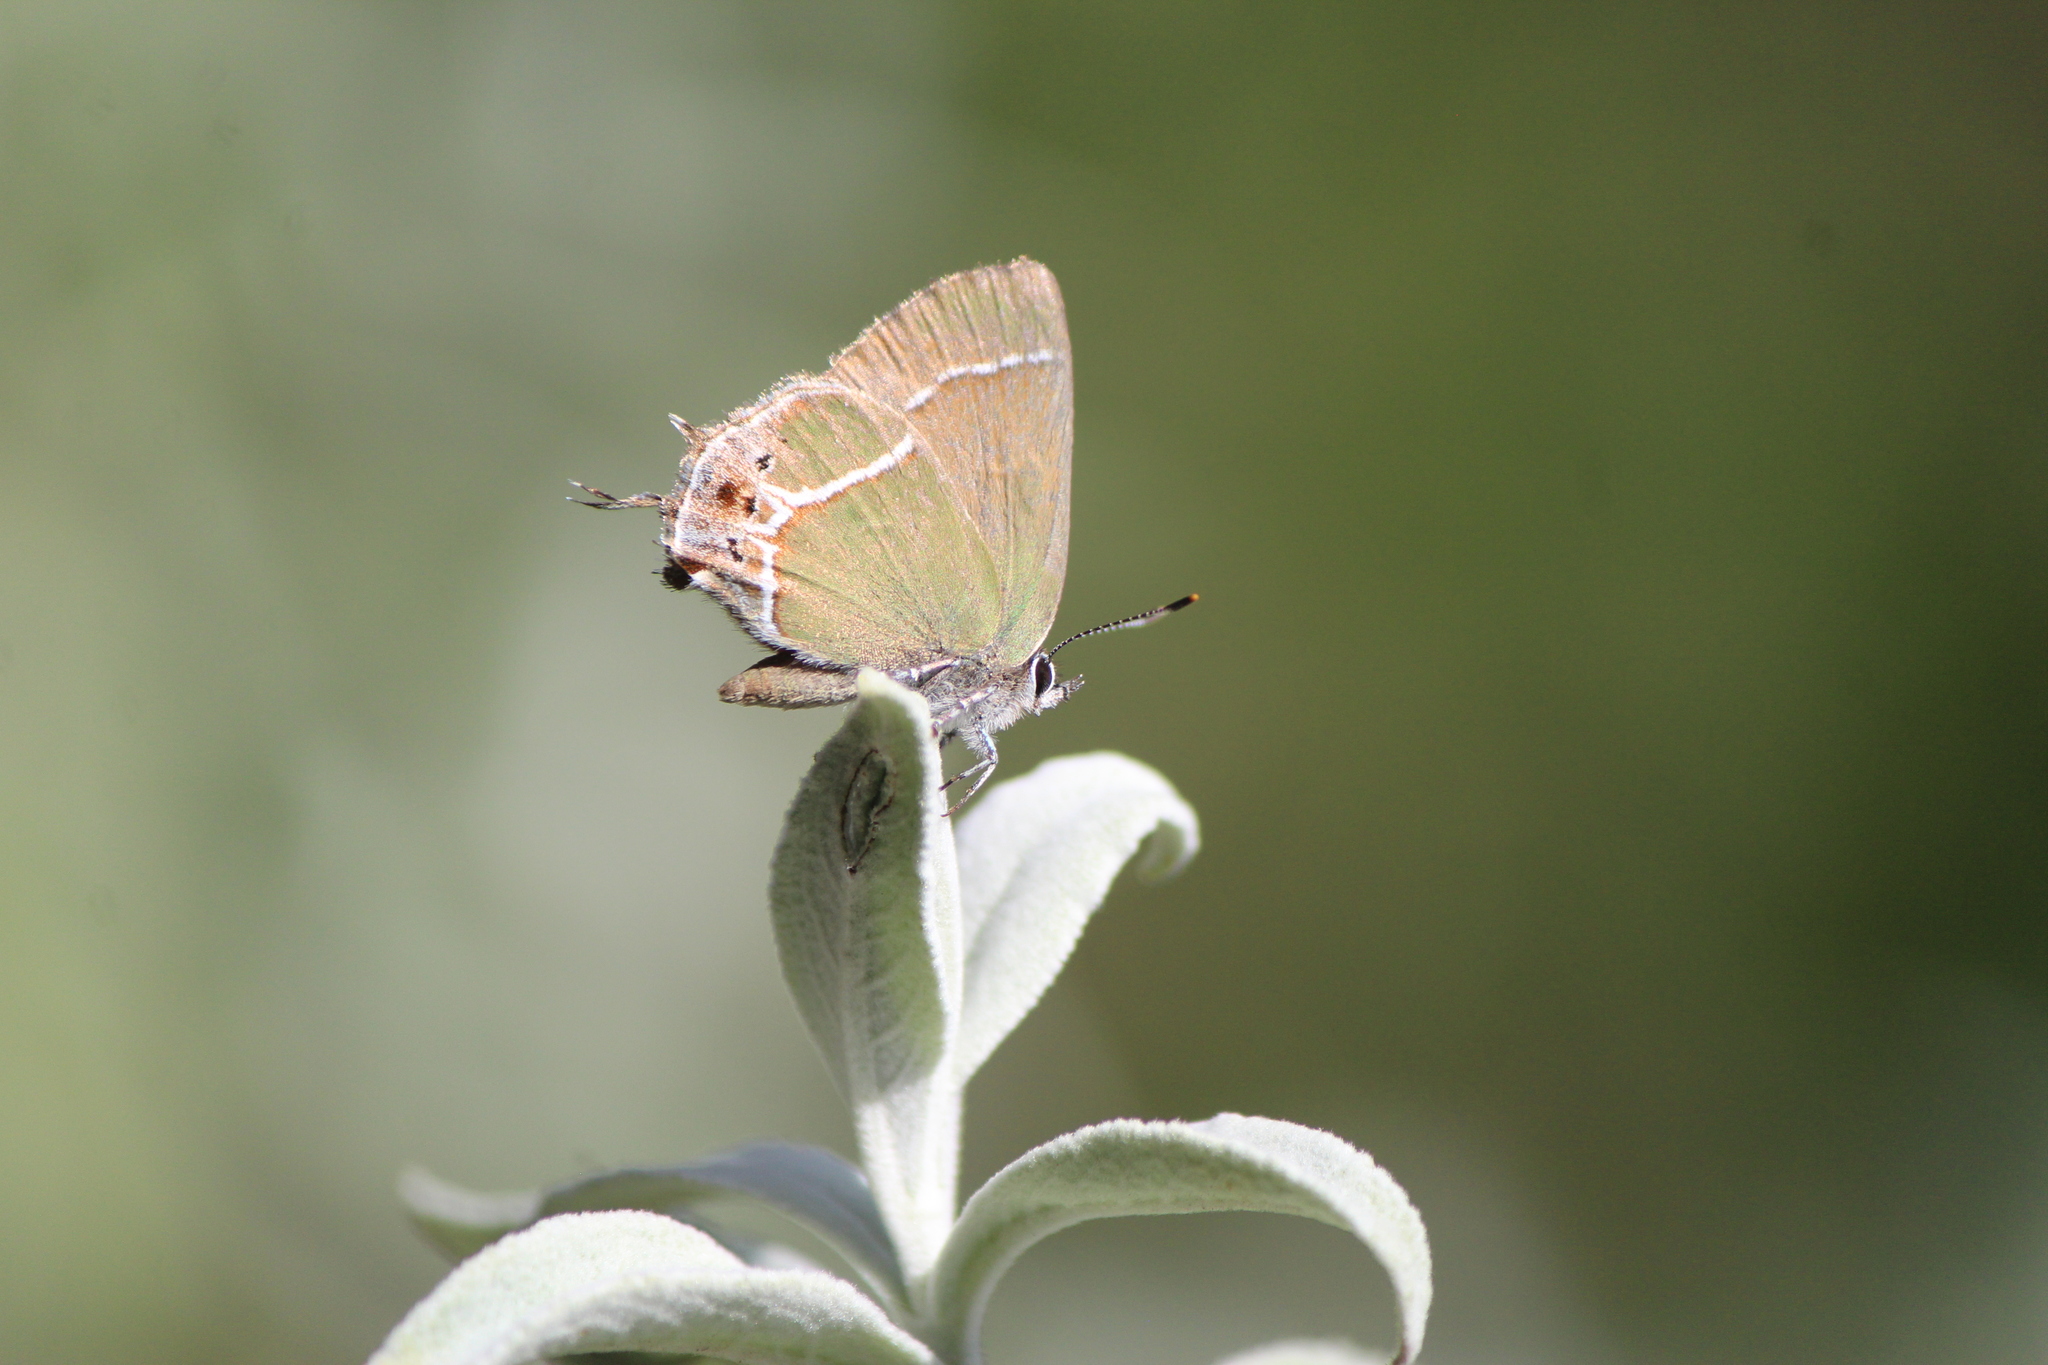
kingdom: Animalia
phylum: Arthropoda
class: Insecta
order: Lepidoptera
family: Lycaenidae
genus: Xamia
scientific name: Xamia xami
